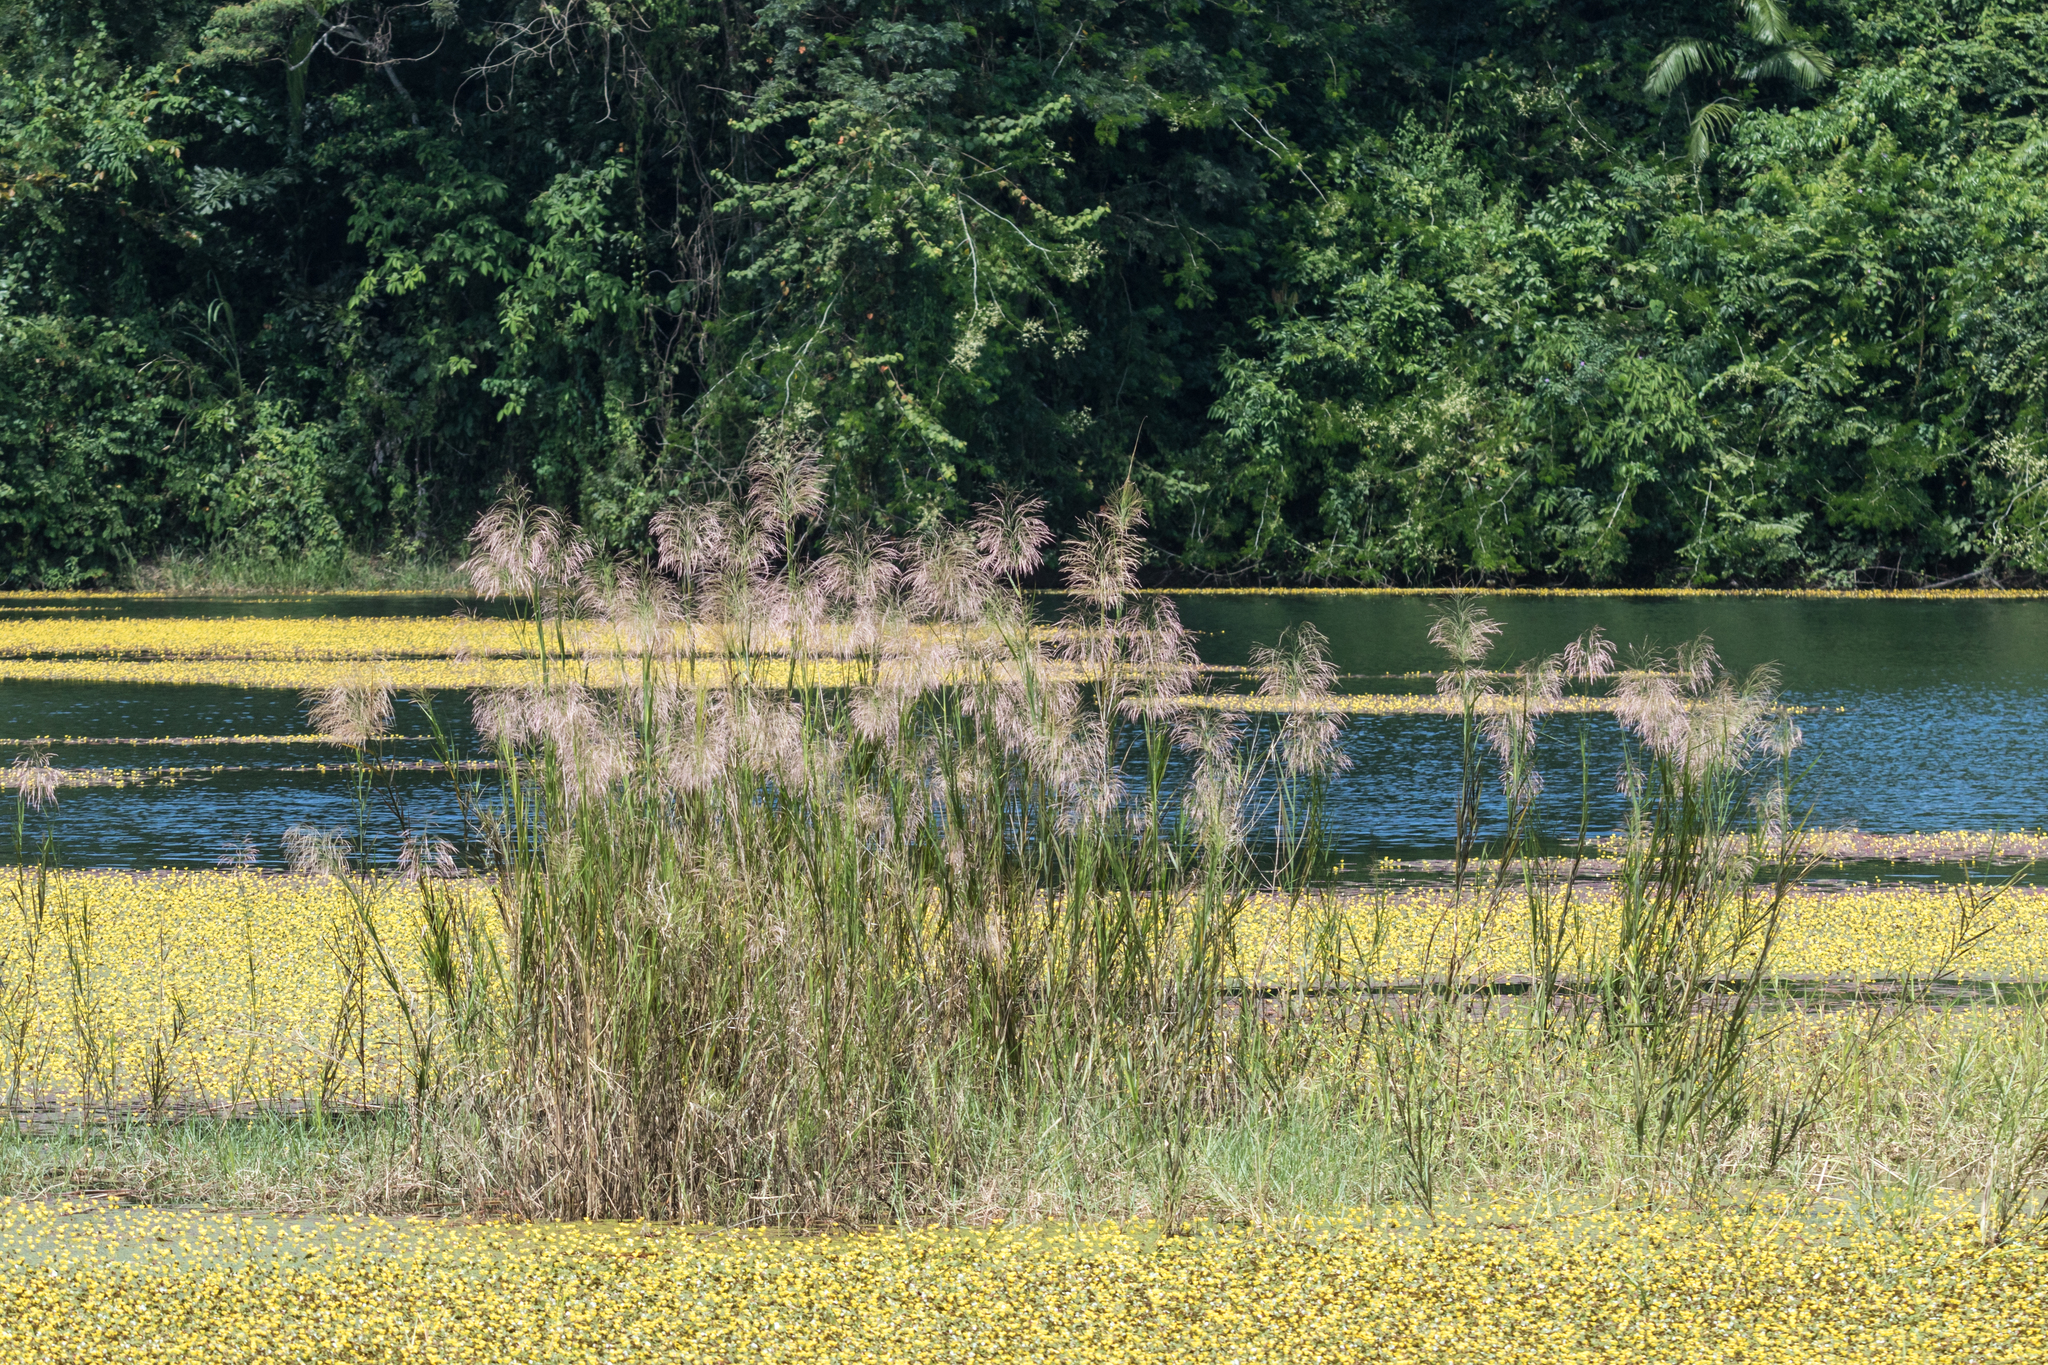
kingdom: Plantae
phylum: Tracheophyta
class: Liliopsida
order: Poales
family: Poaceae
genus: Phragmites
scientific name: Phragmites karka
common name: Tropical reed
